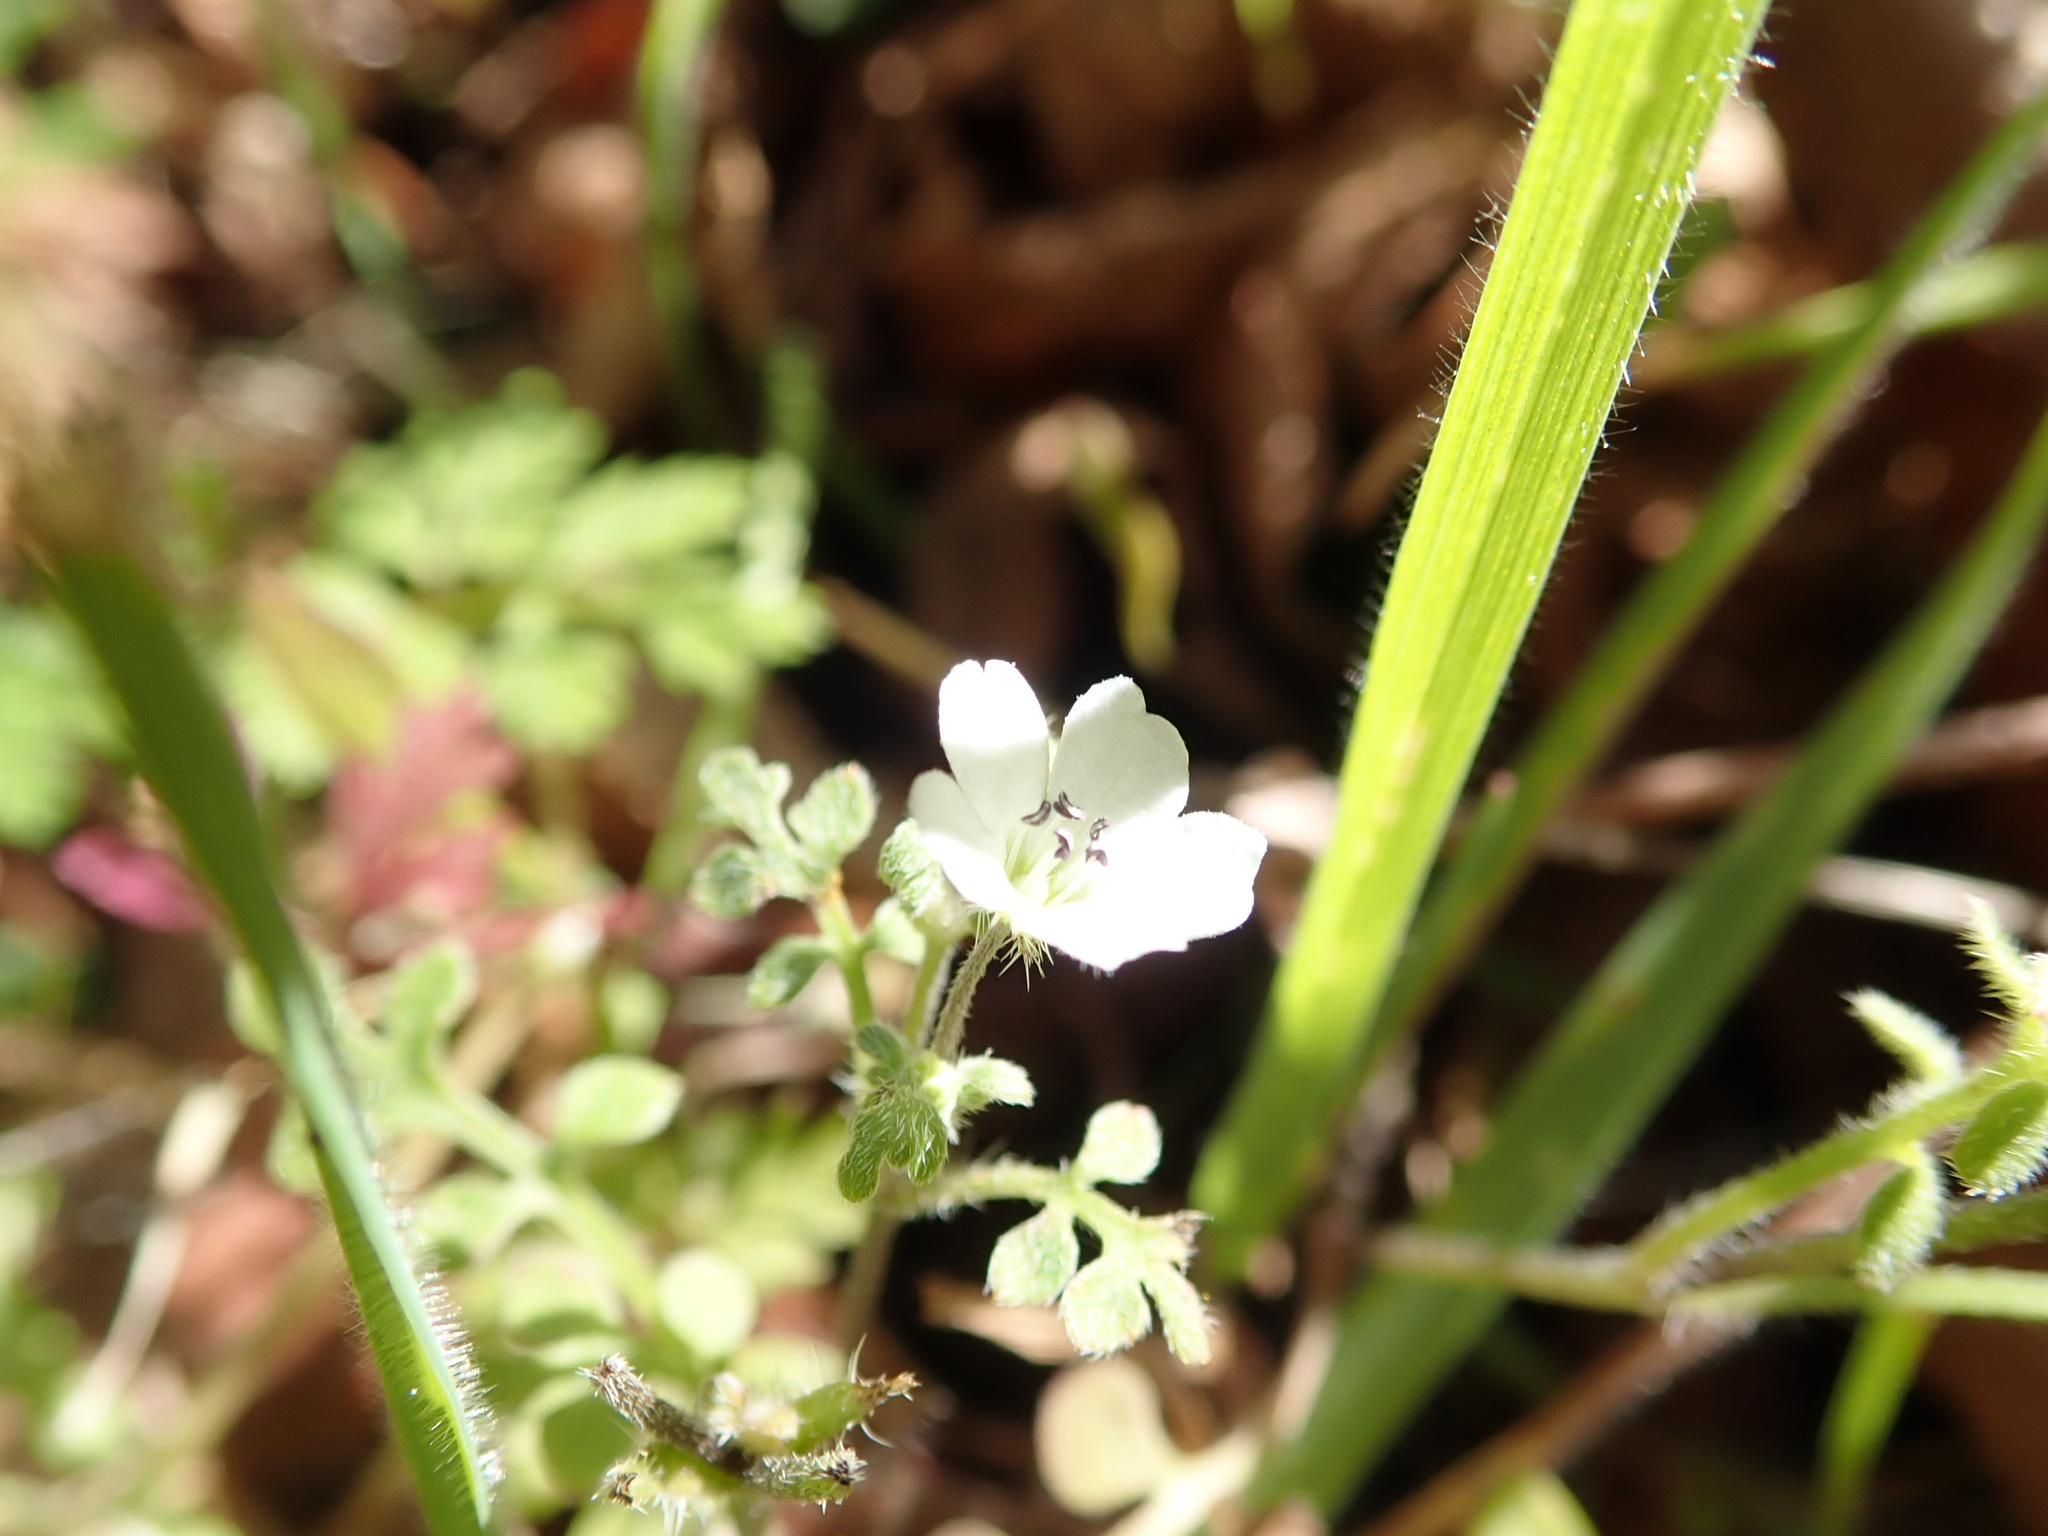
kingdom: Plantae
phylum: Tracheophyta
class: Magnoliopsida
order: Boraginales
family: Hydrophyllaceae
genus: Nemophila
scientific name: Nemophila heterophylla
